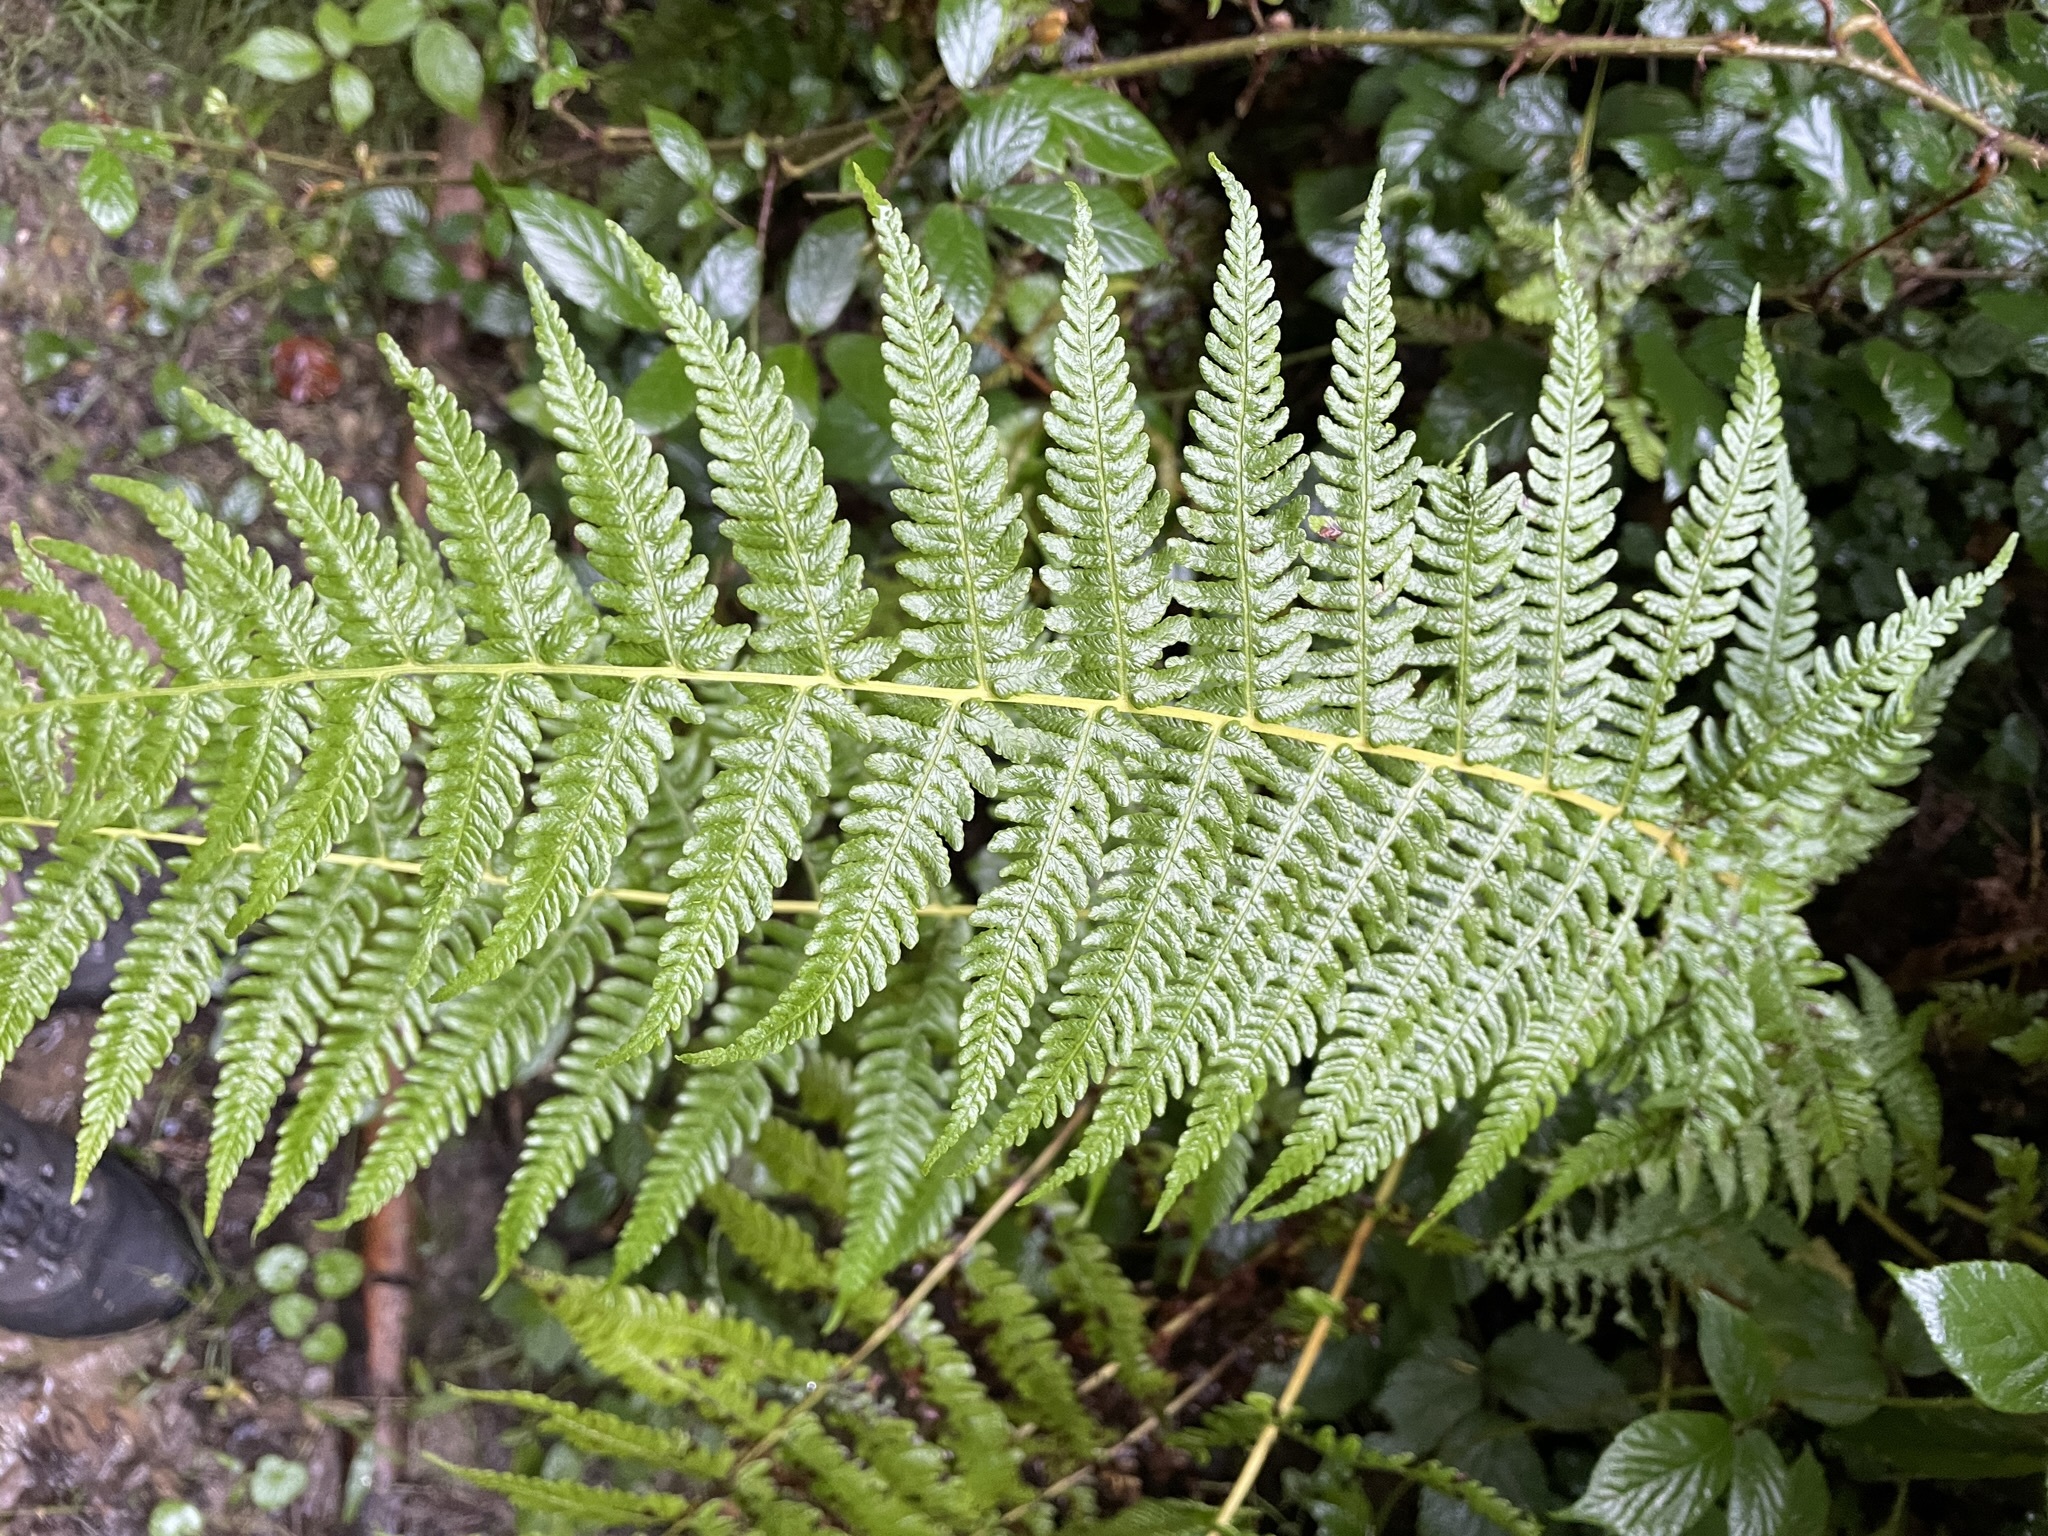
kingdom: Plantae
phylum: Tracheophyta
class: Polypodiopsida
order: Polypodiales
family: Thelypteridaceae
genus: Oreopteris
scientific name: Oreopteris limbosperma
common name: Lemon-scented fern
